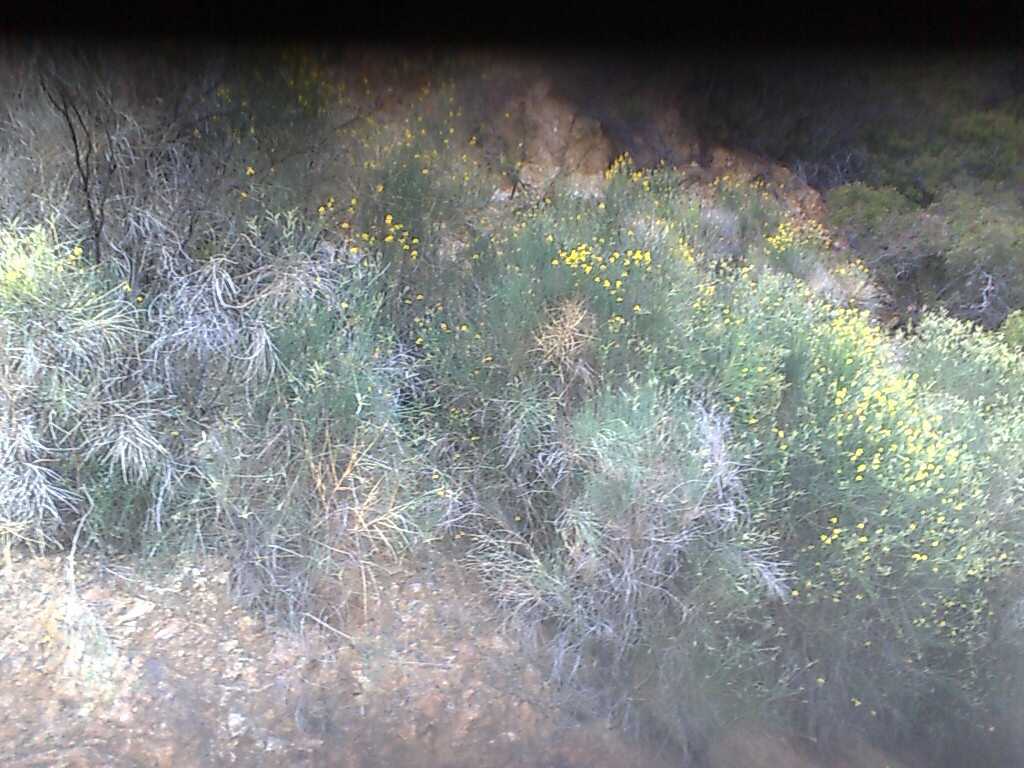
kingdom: Plantae
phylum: Tracheophyta
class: Magnoliopsida
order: Fabales
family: Fabaceae
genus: Spartium
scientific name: Spartium junceum
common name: Spanish broom
